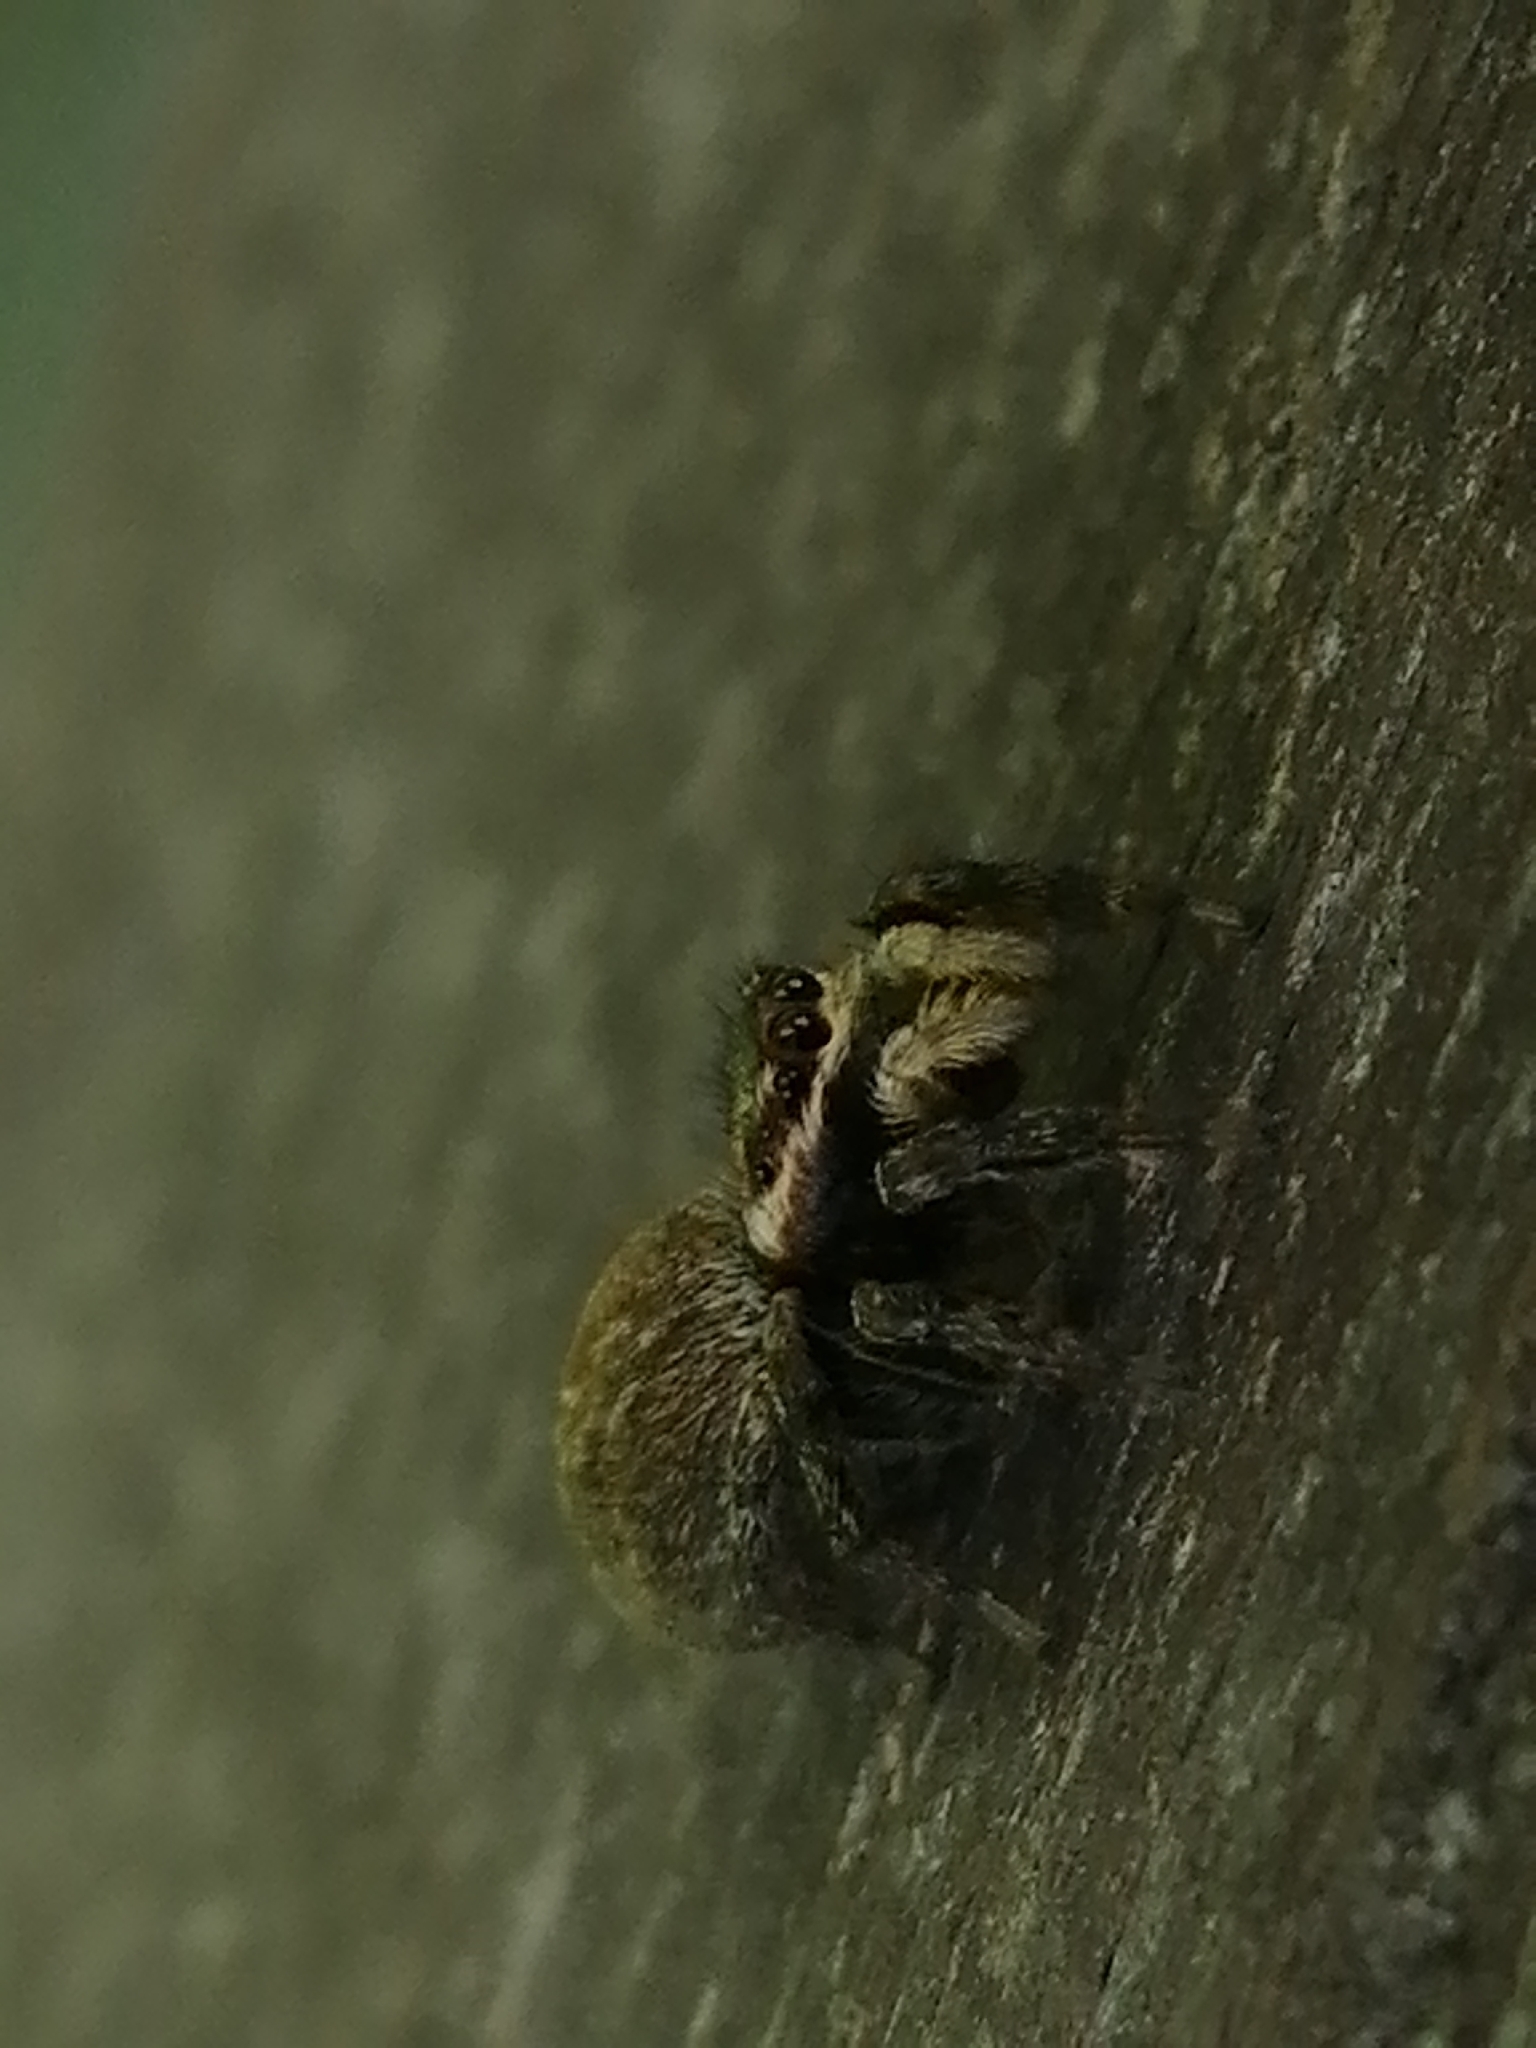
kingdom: Animalia
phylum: Arthropoda
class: Arachnida
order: Araneae
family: Salticidae
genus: Maratus
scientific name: Maratus griseus
